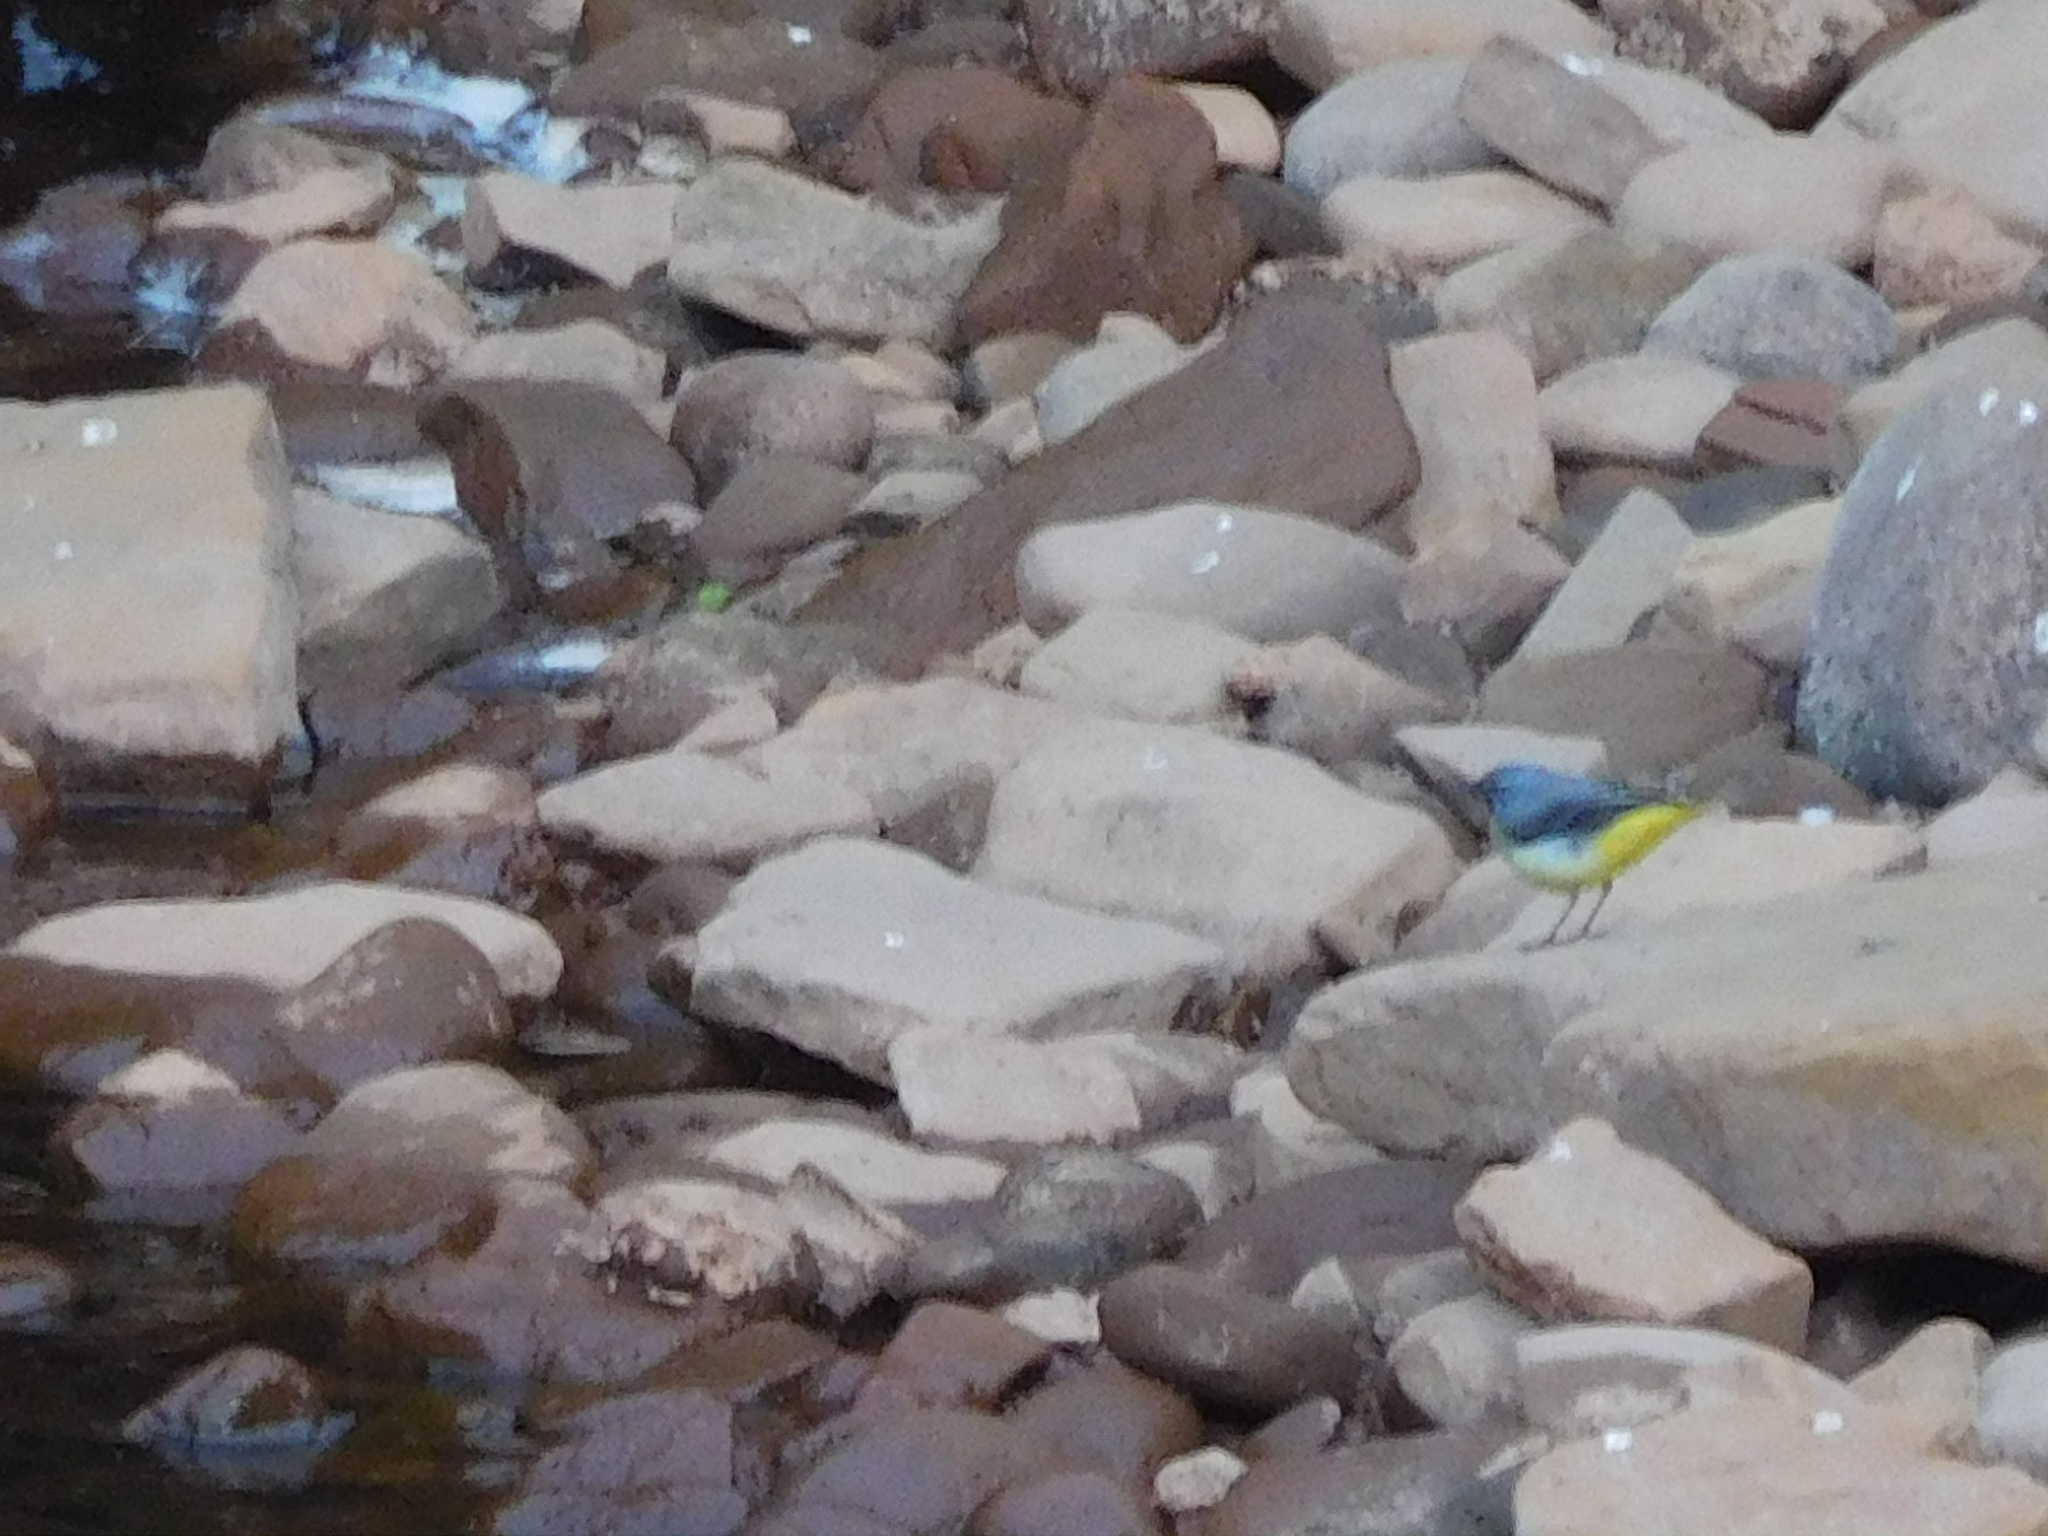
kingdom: Animalia
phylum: Chordata
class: Aves
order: Passeriformes
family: Motacillidae
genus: Motacilla
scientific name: Motacilla cinerea
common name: Grey wagtail
